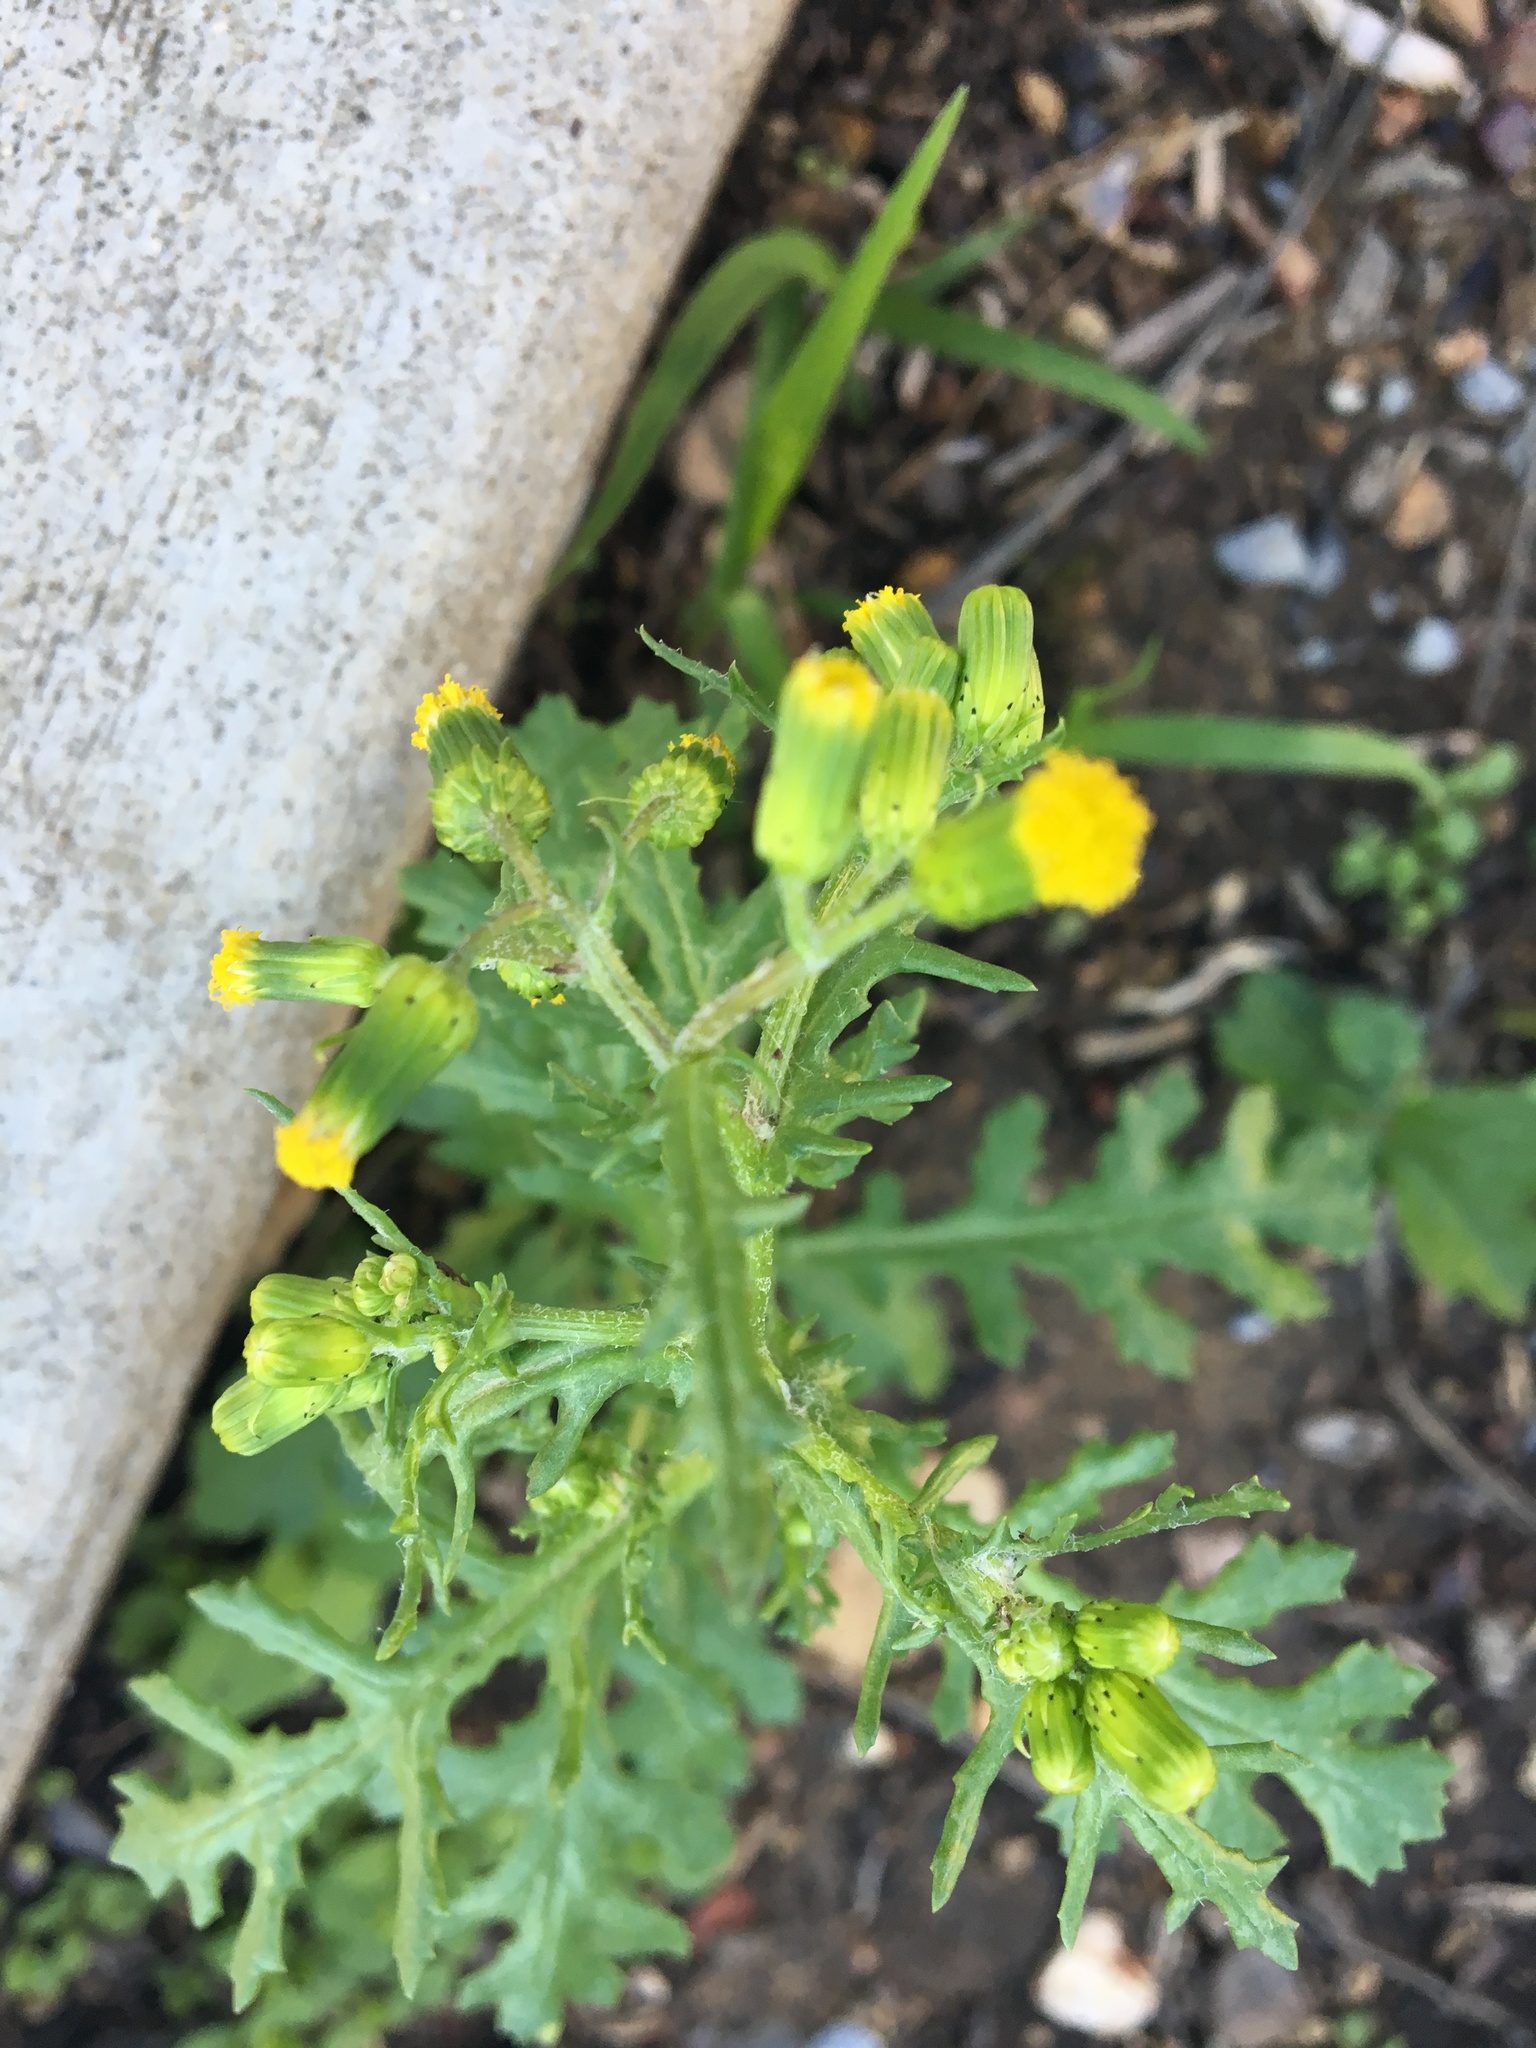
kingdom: Plantae
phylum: Tracheophyta
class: Magnoliopsida
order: Asterales
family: Asteraceae
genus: Senecio
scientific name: Senecio vulgaris
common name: Old-man-in-the-spring
